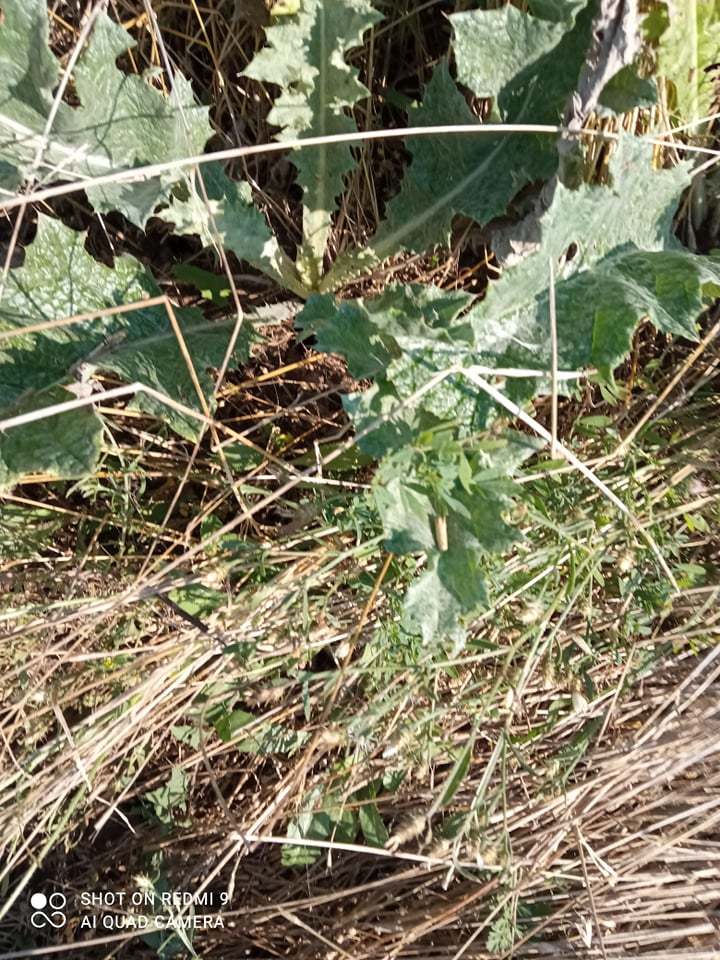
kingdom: Plantae
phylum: Tracheophyta
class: Magnoliopsida
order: Asterales
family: Asteraceae
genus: Onopordum
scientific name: Onopordum acanthium
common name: Scotch thistle
